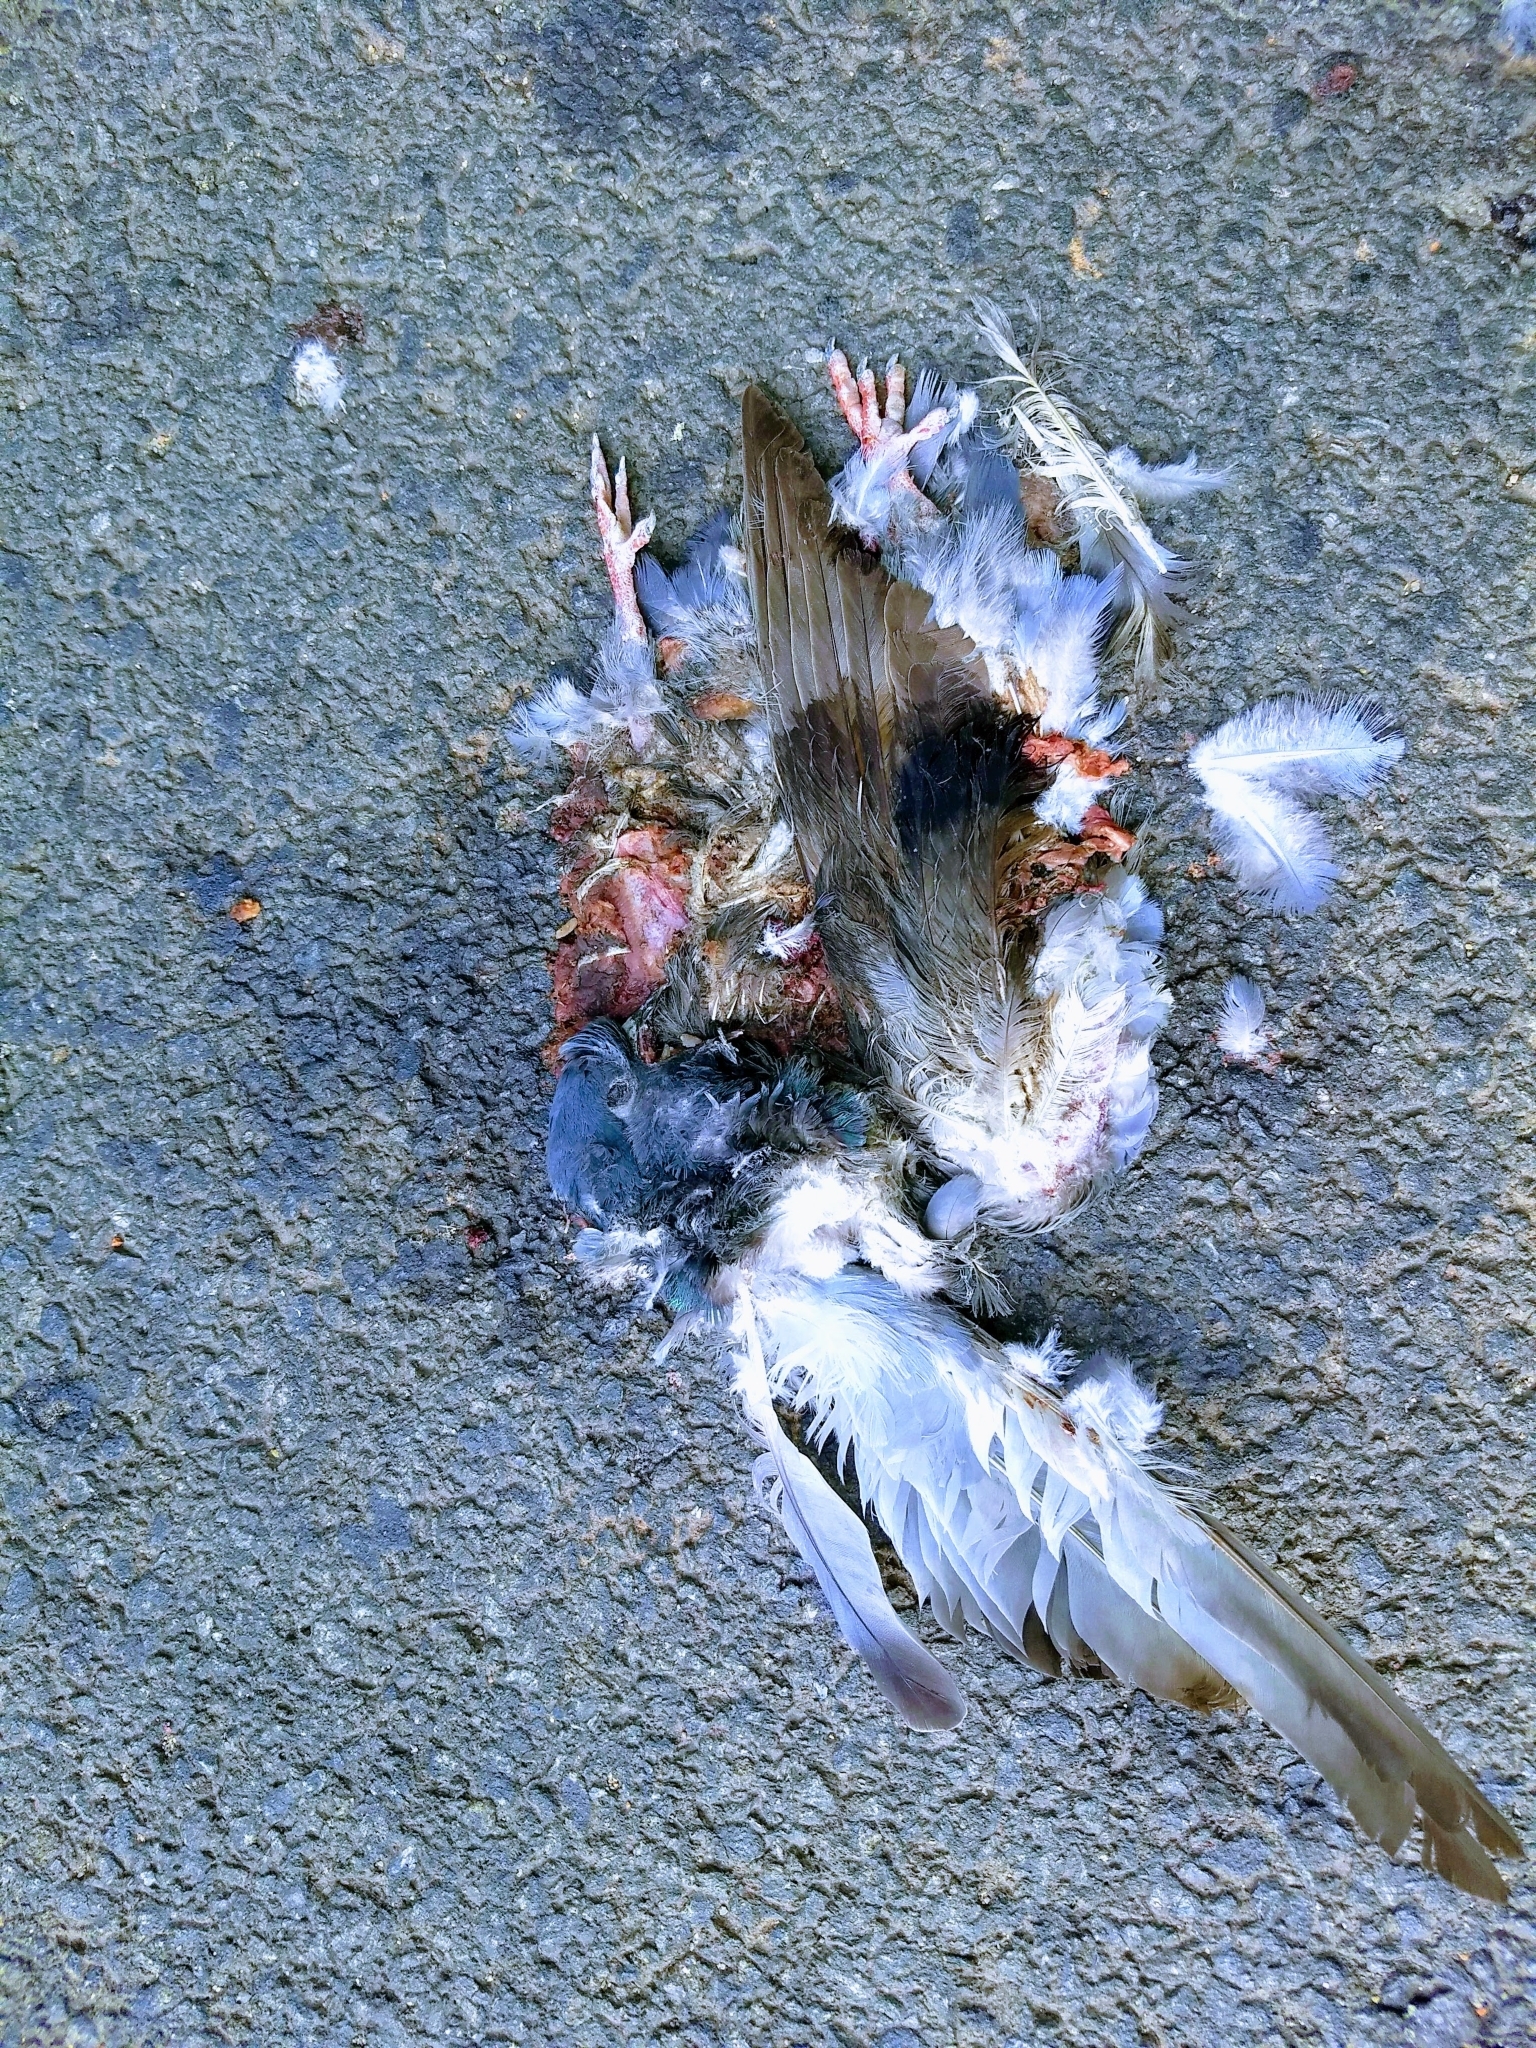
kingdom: Animalia
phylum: Chordata
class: Aves
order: Columbiformes
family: Columbidae
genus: Columba
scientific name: Columba livia
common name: Rock pigeon
